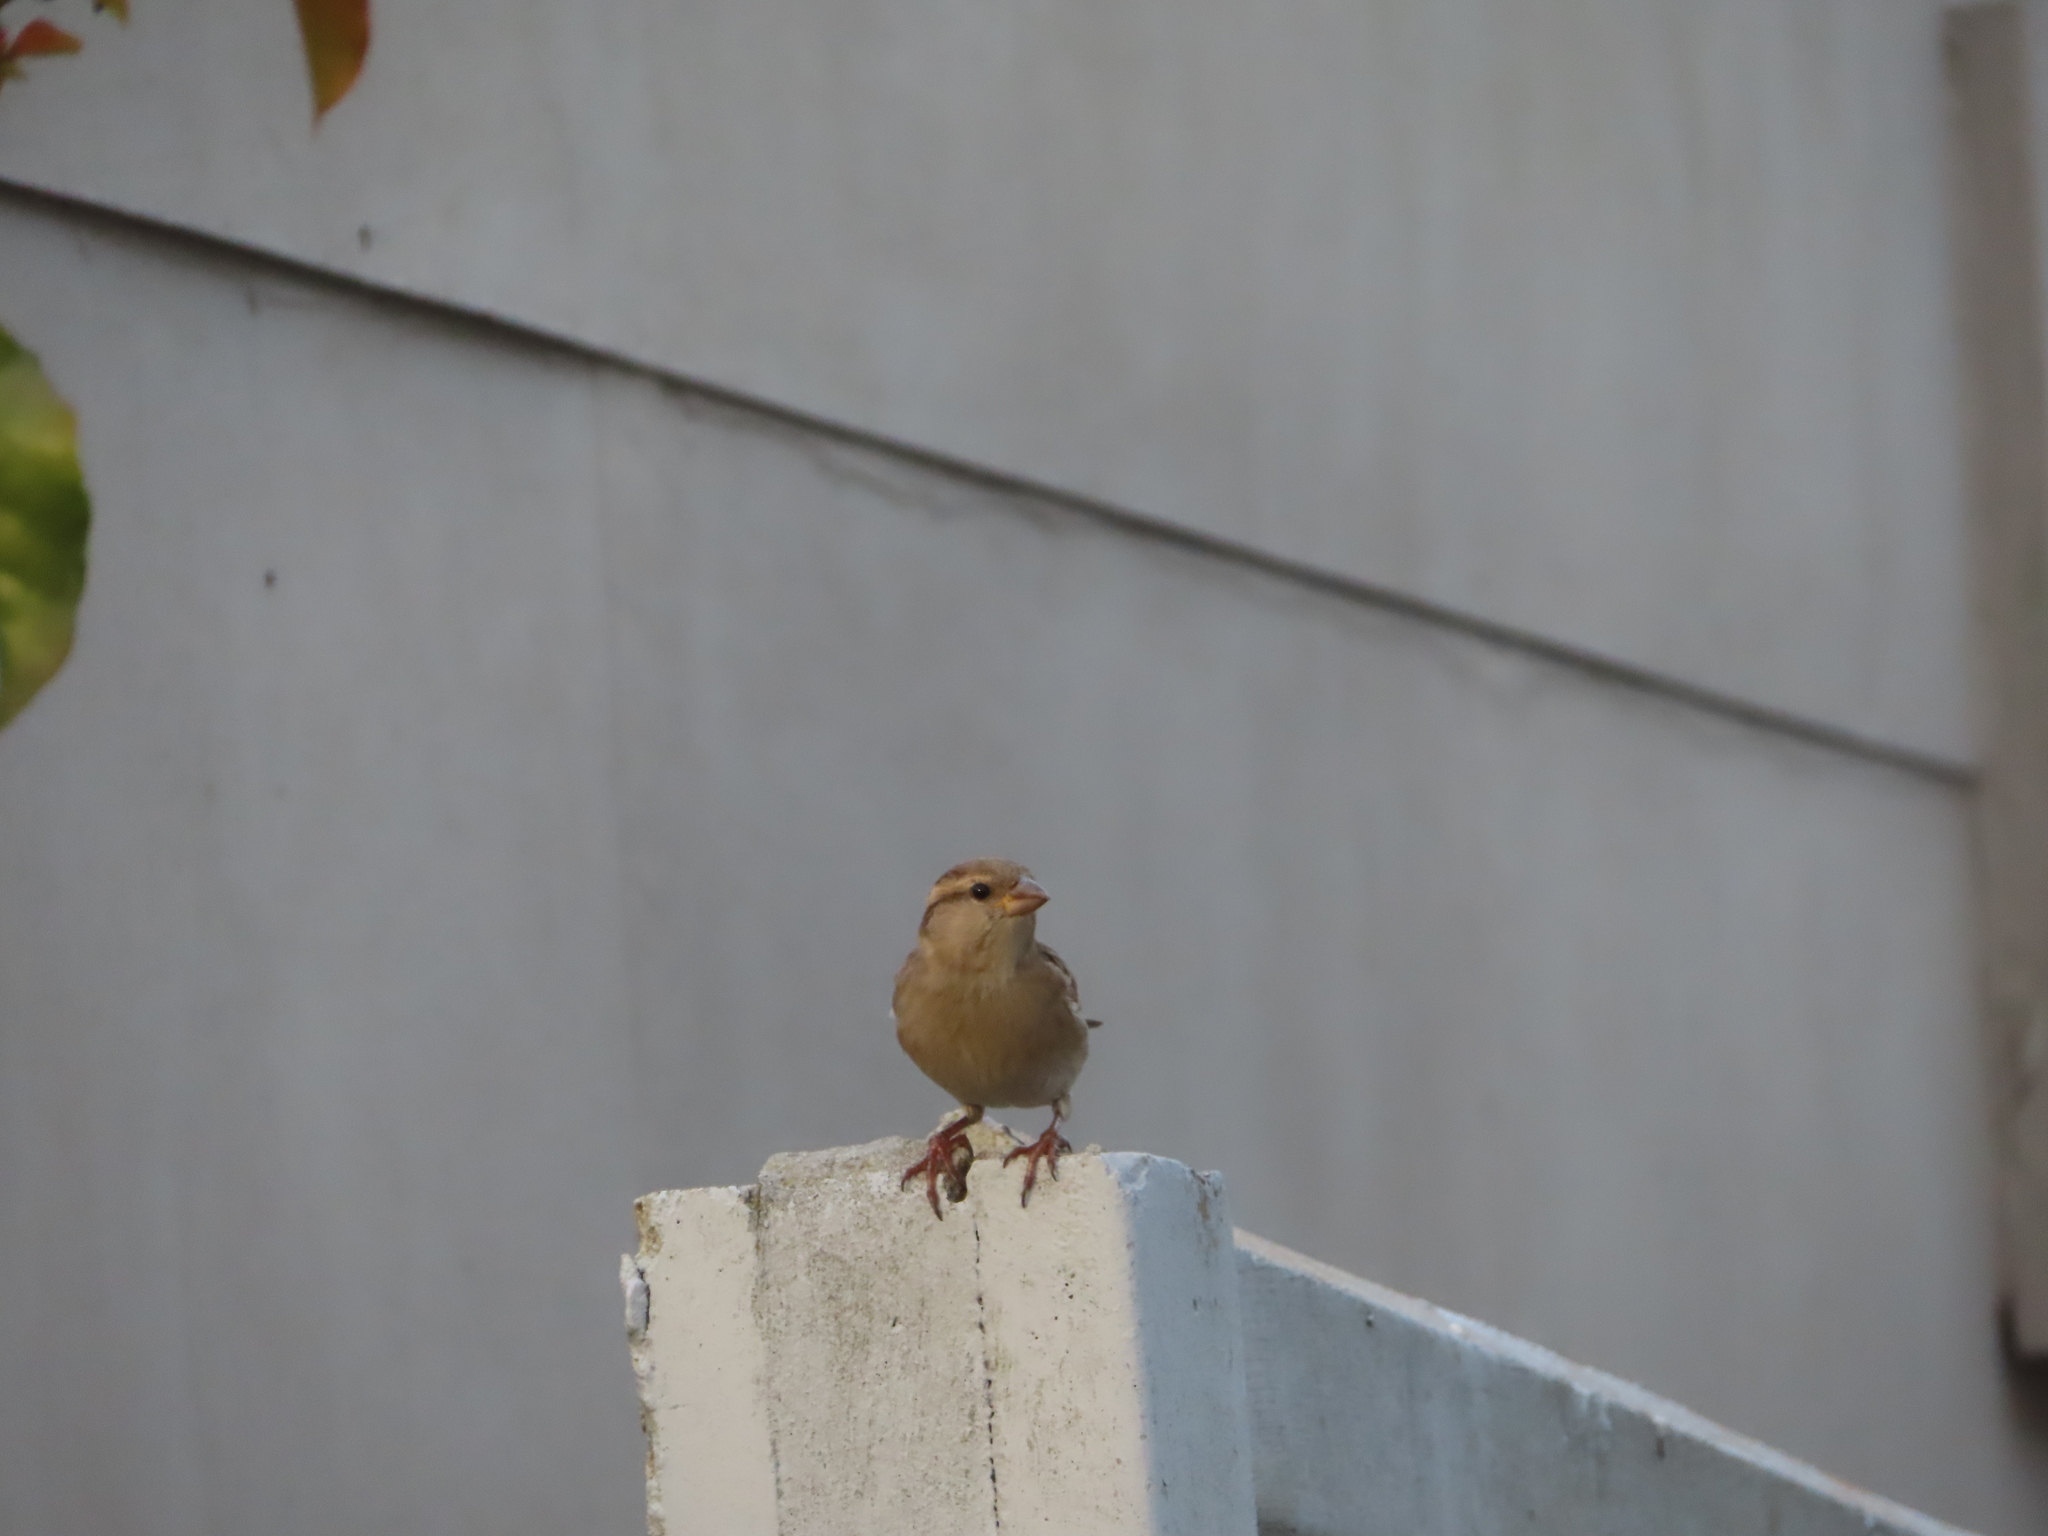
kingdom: Animalia
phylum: Chordata
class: Aves
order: Passeriformes
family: Passeridae
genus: Passer
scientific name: Passer domesticus
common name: House sparrow
